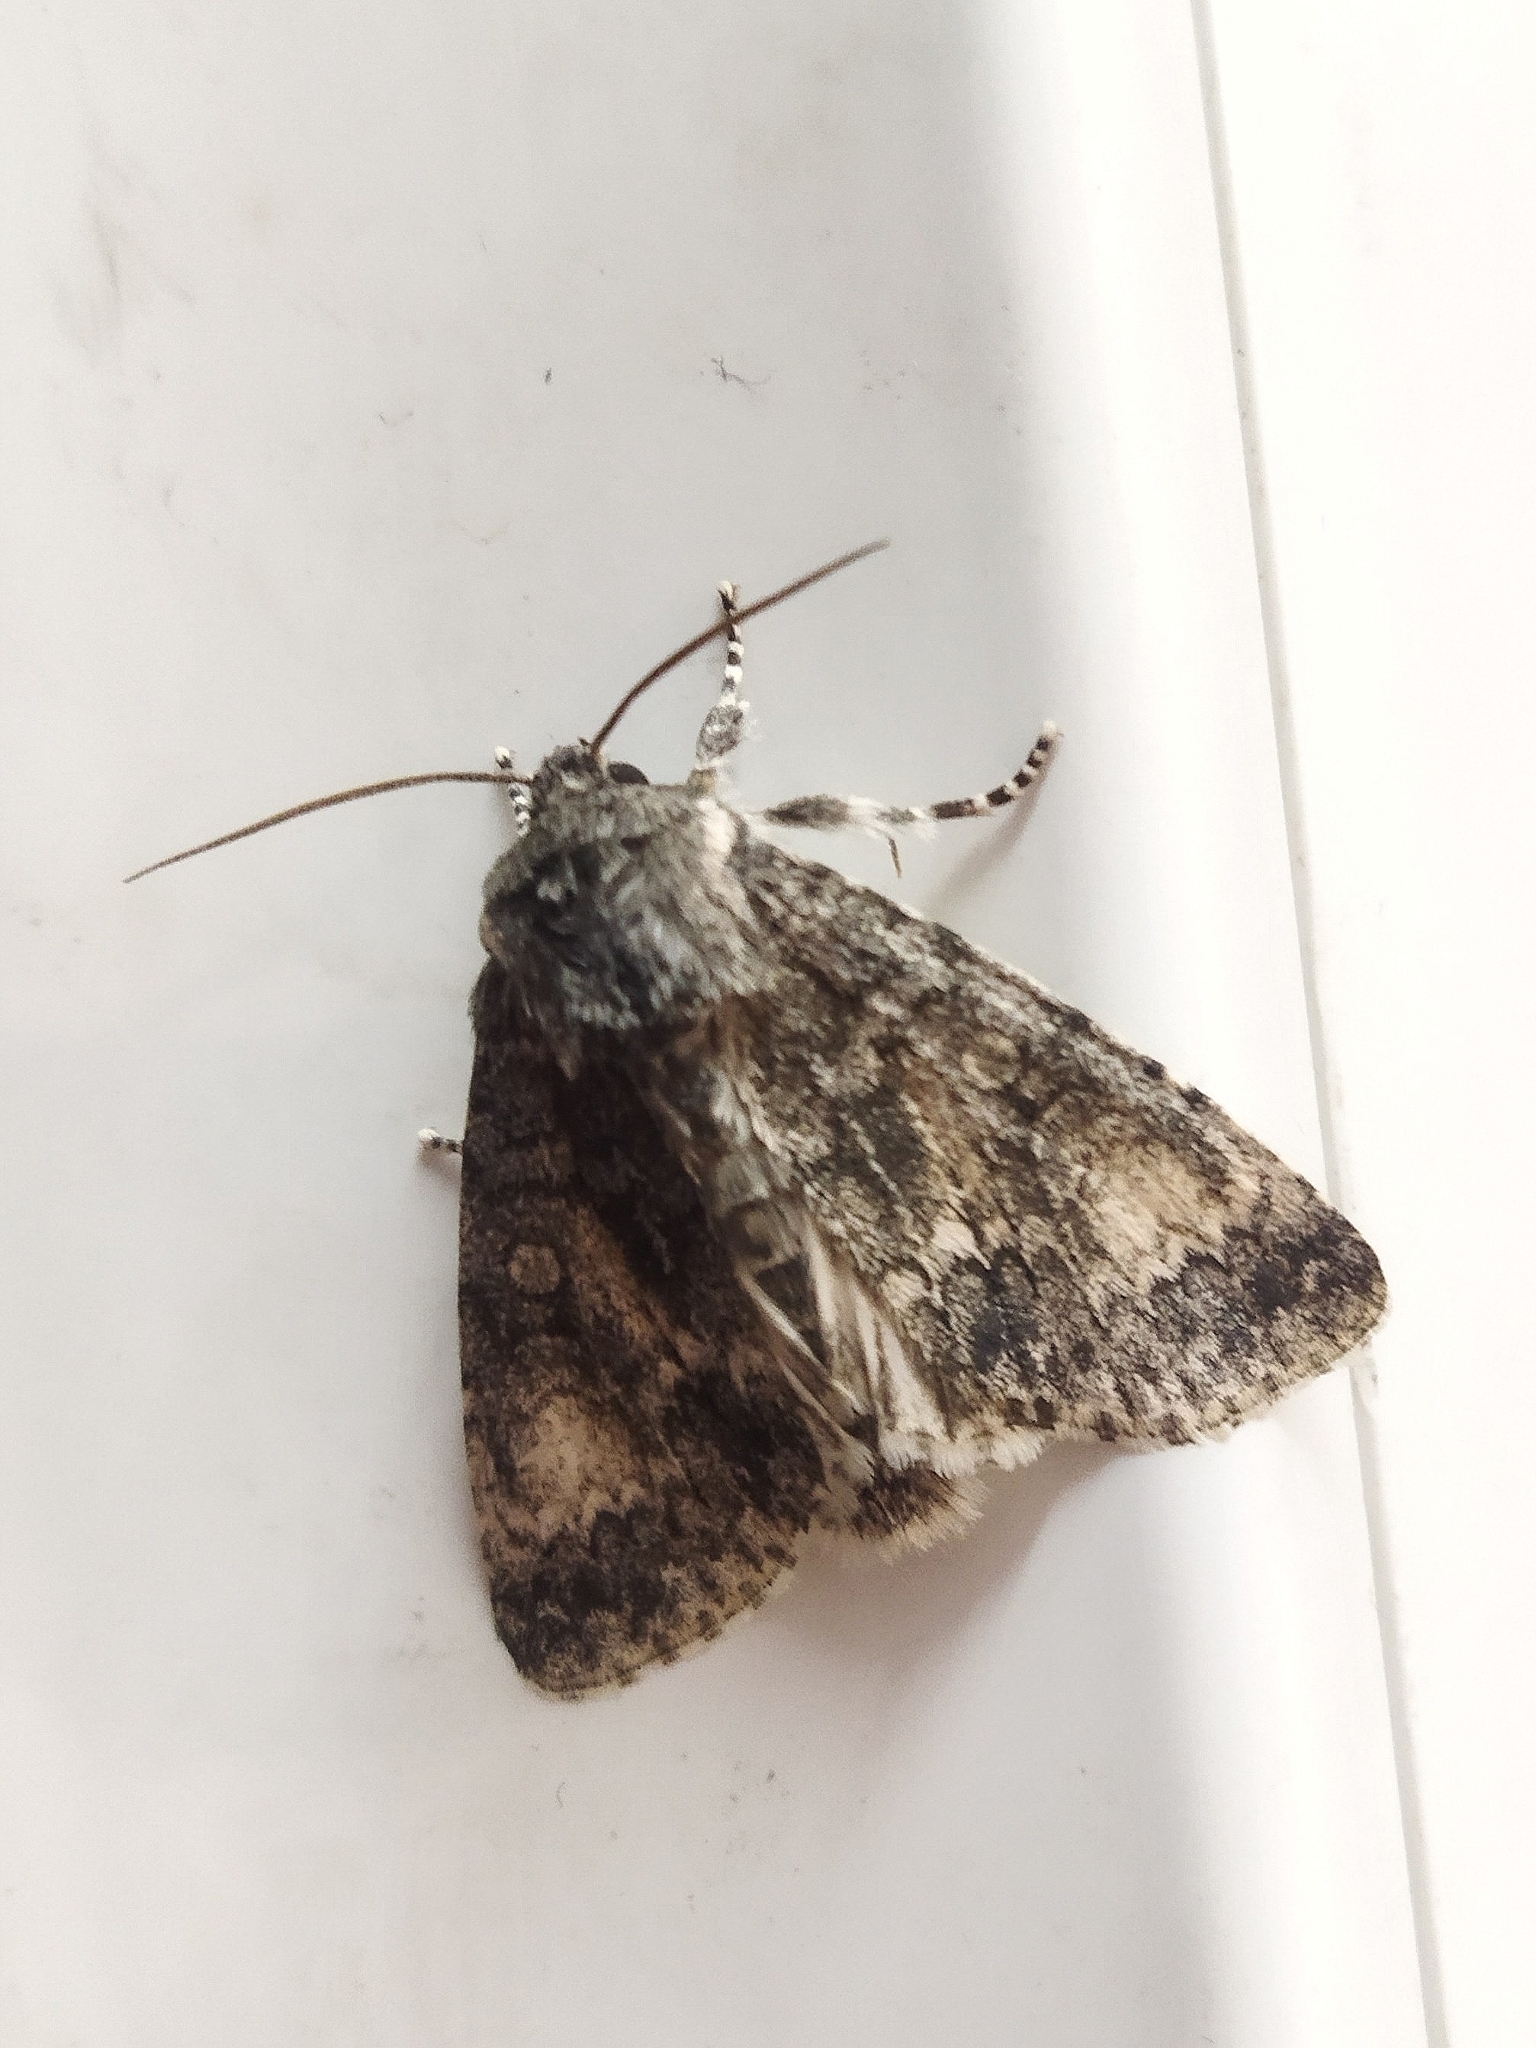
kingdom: Animalia
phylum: Arthropoda
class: Insecta
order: Lepidoptera
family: Noctuidae
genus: Acronicta
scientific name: Acronicta megacephala
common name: Poplar grey
